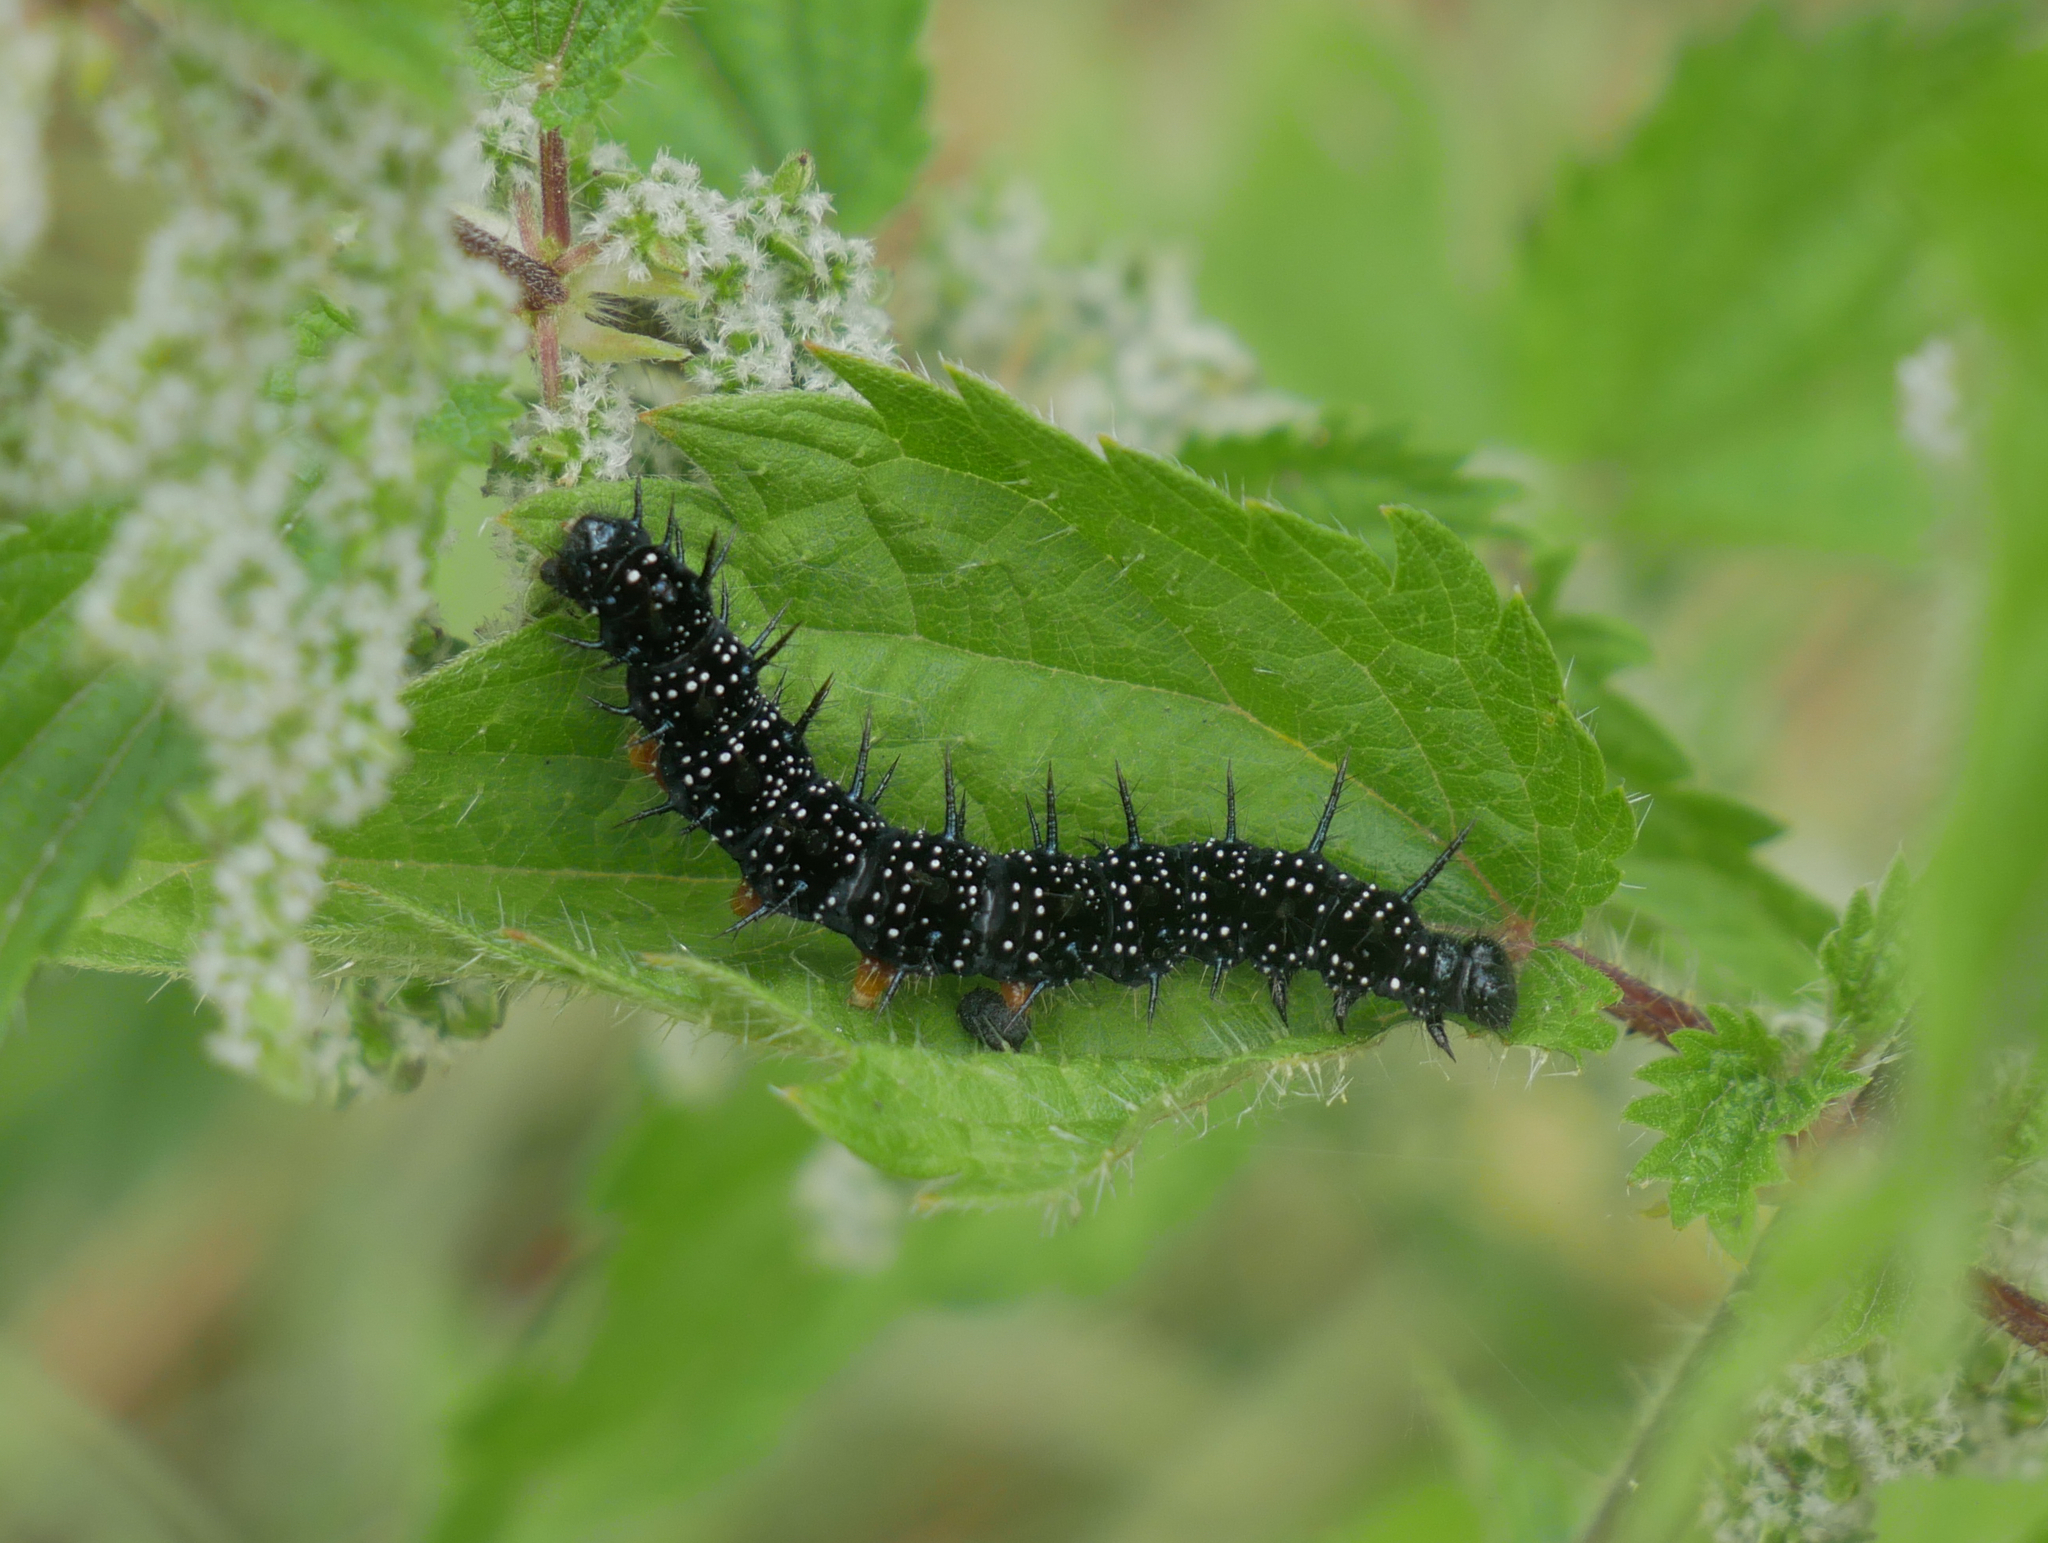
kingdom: Animalia
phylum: Arthropoda
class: Insecta
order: Lepidoptera
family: Nymphalidae
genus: Aglais
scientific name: Aglais io
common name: Peacock
